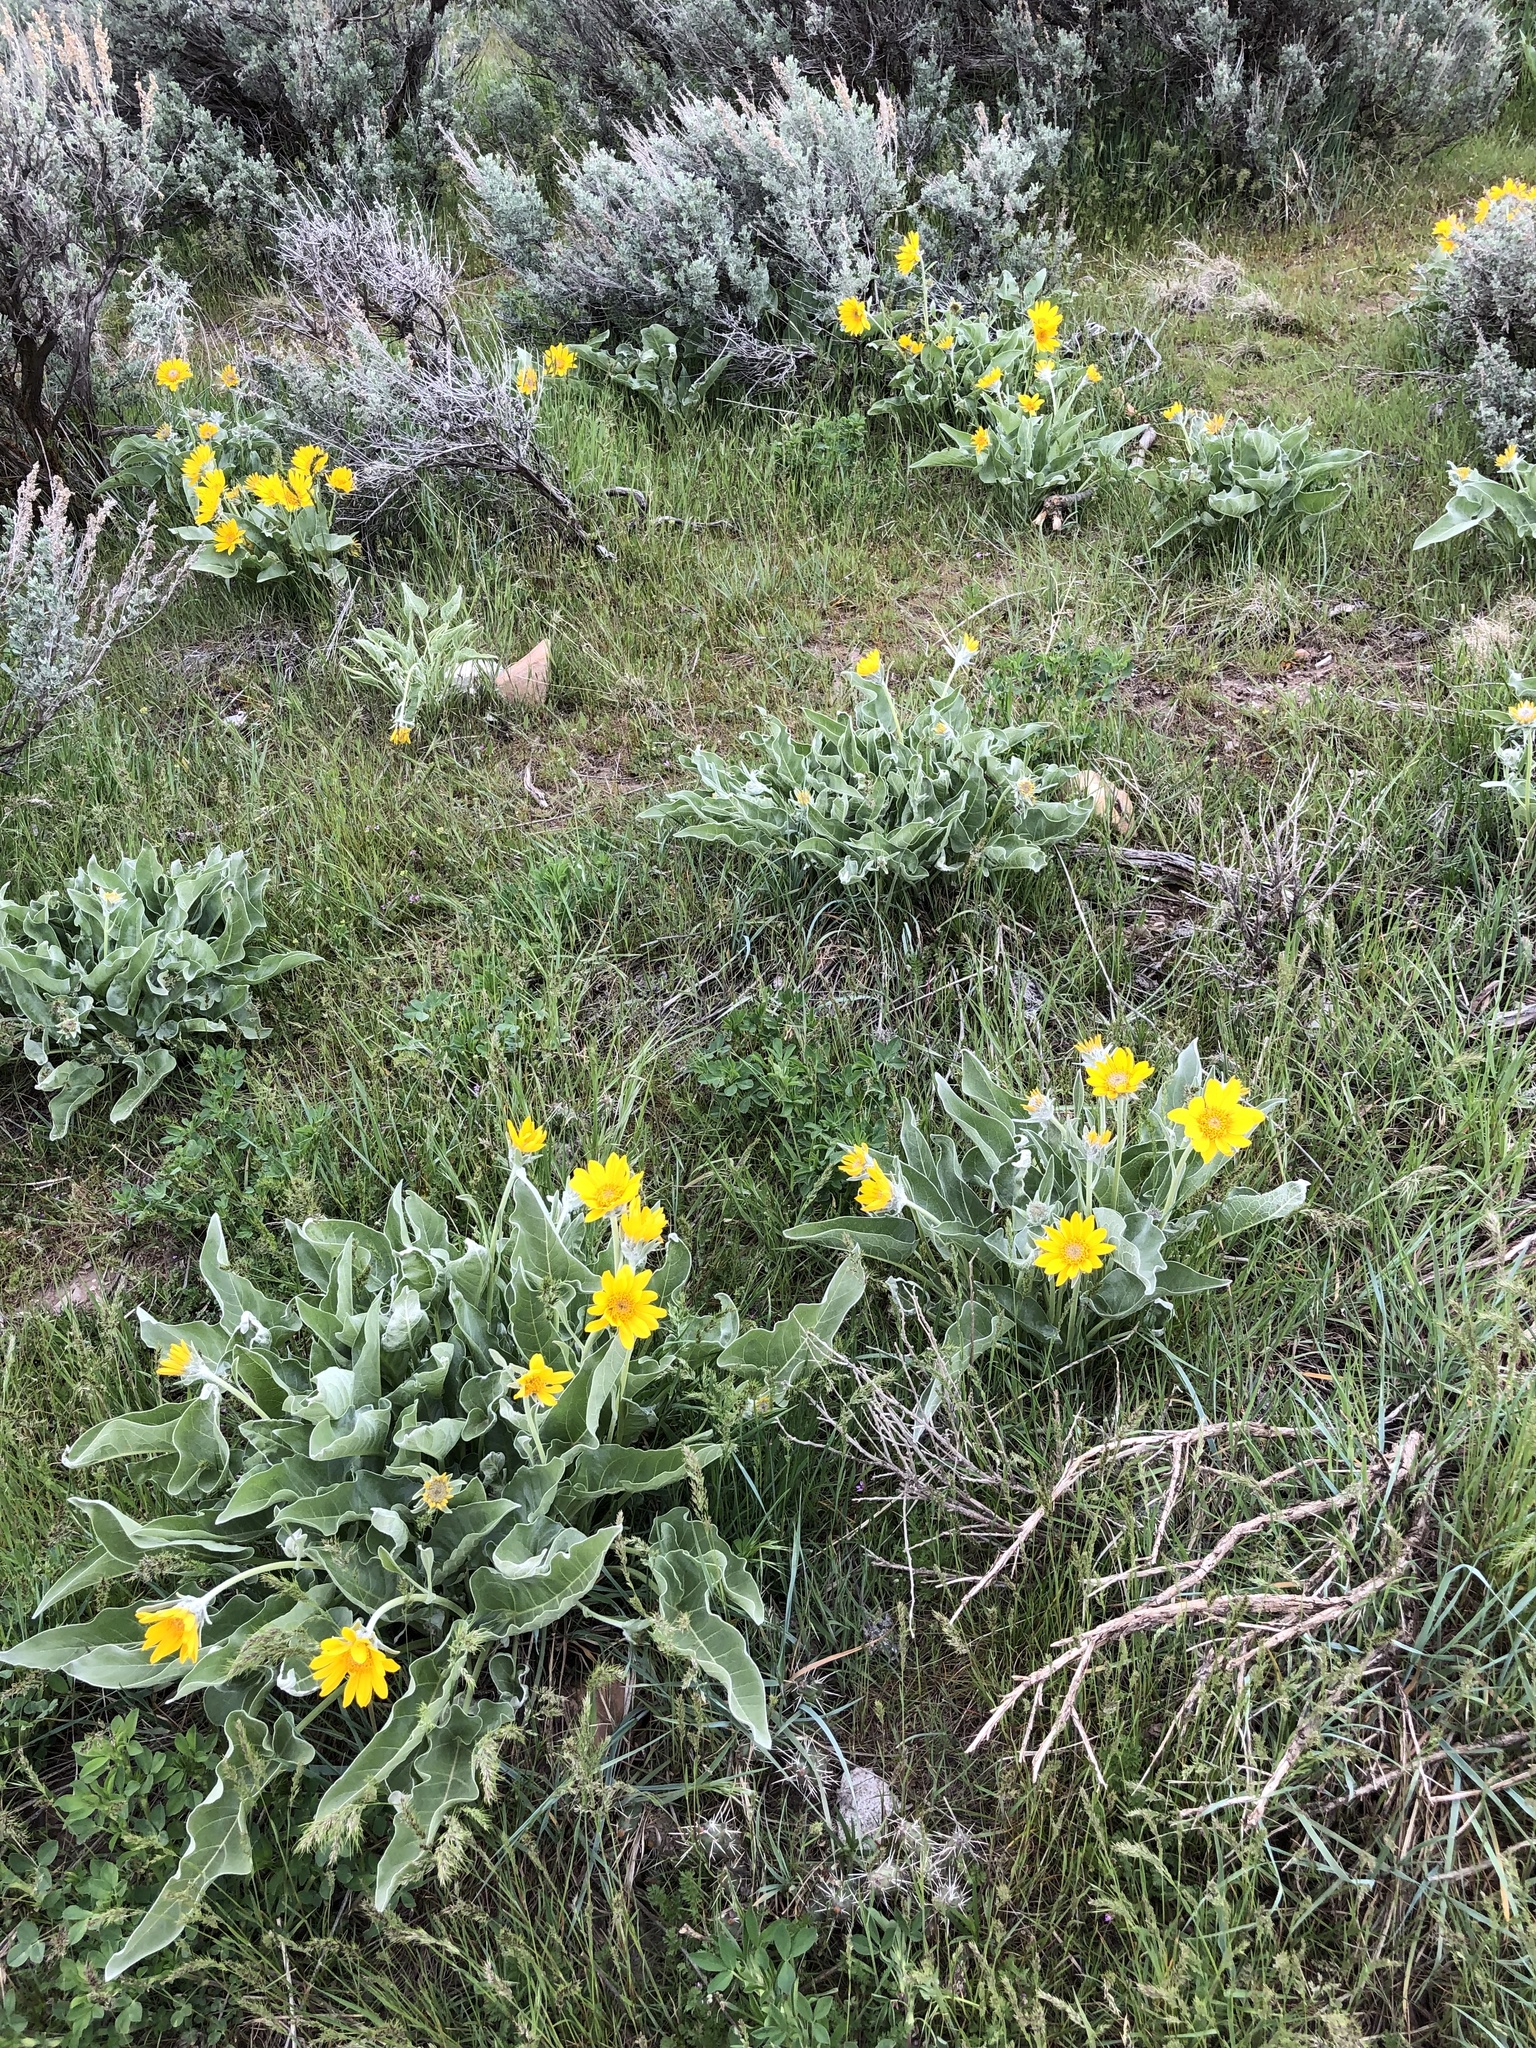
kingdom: Plantae
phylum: Tracheophyta
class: Magnoliopsida
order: Asterales
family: Asteraceae
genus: Wyethia
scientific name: Wyethia sagittata
